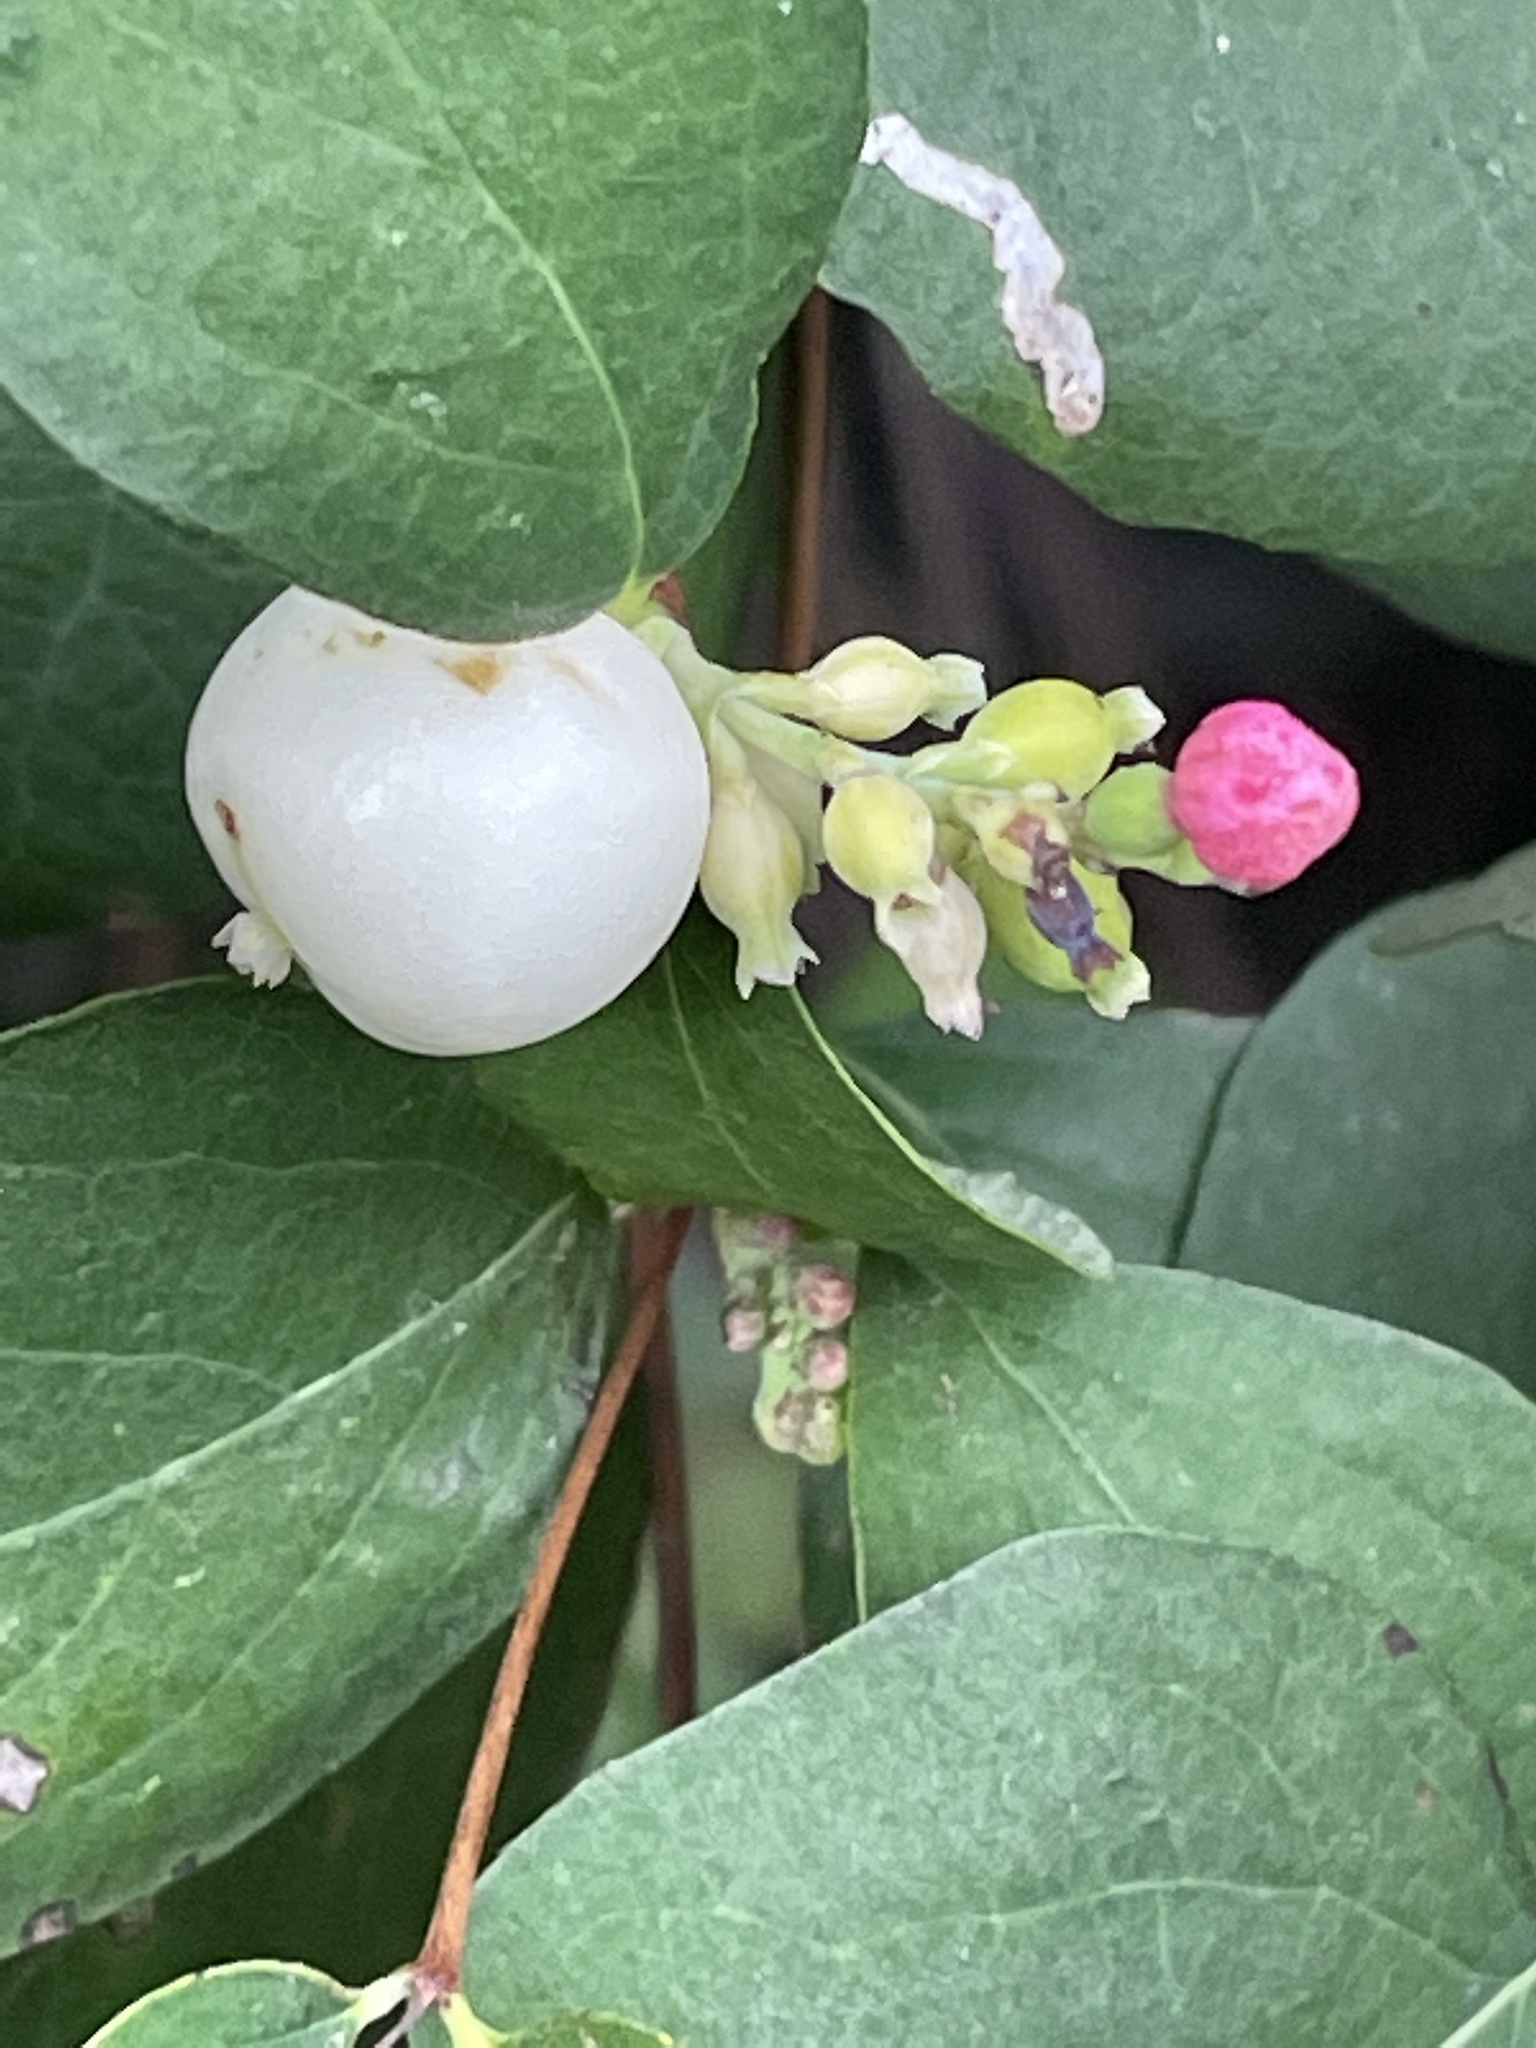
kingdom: Plantae
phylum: Tracheophyta
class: Magnoliopsida
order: Dipsacales
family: Caprifoliaceae
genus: Symphoricarpos
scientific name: Symphoricarpos albus
